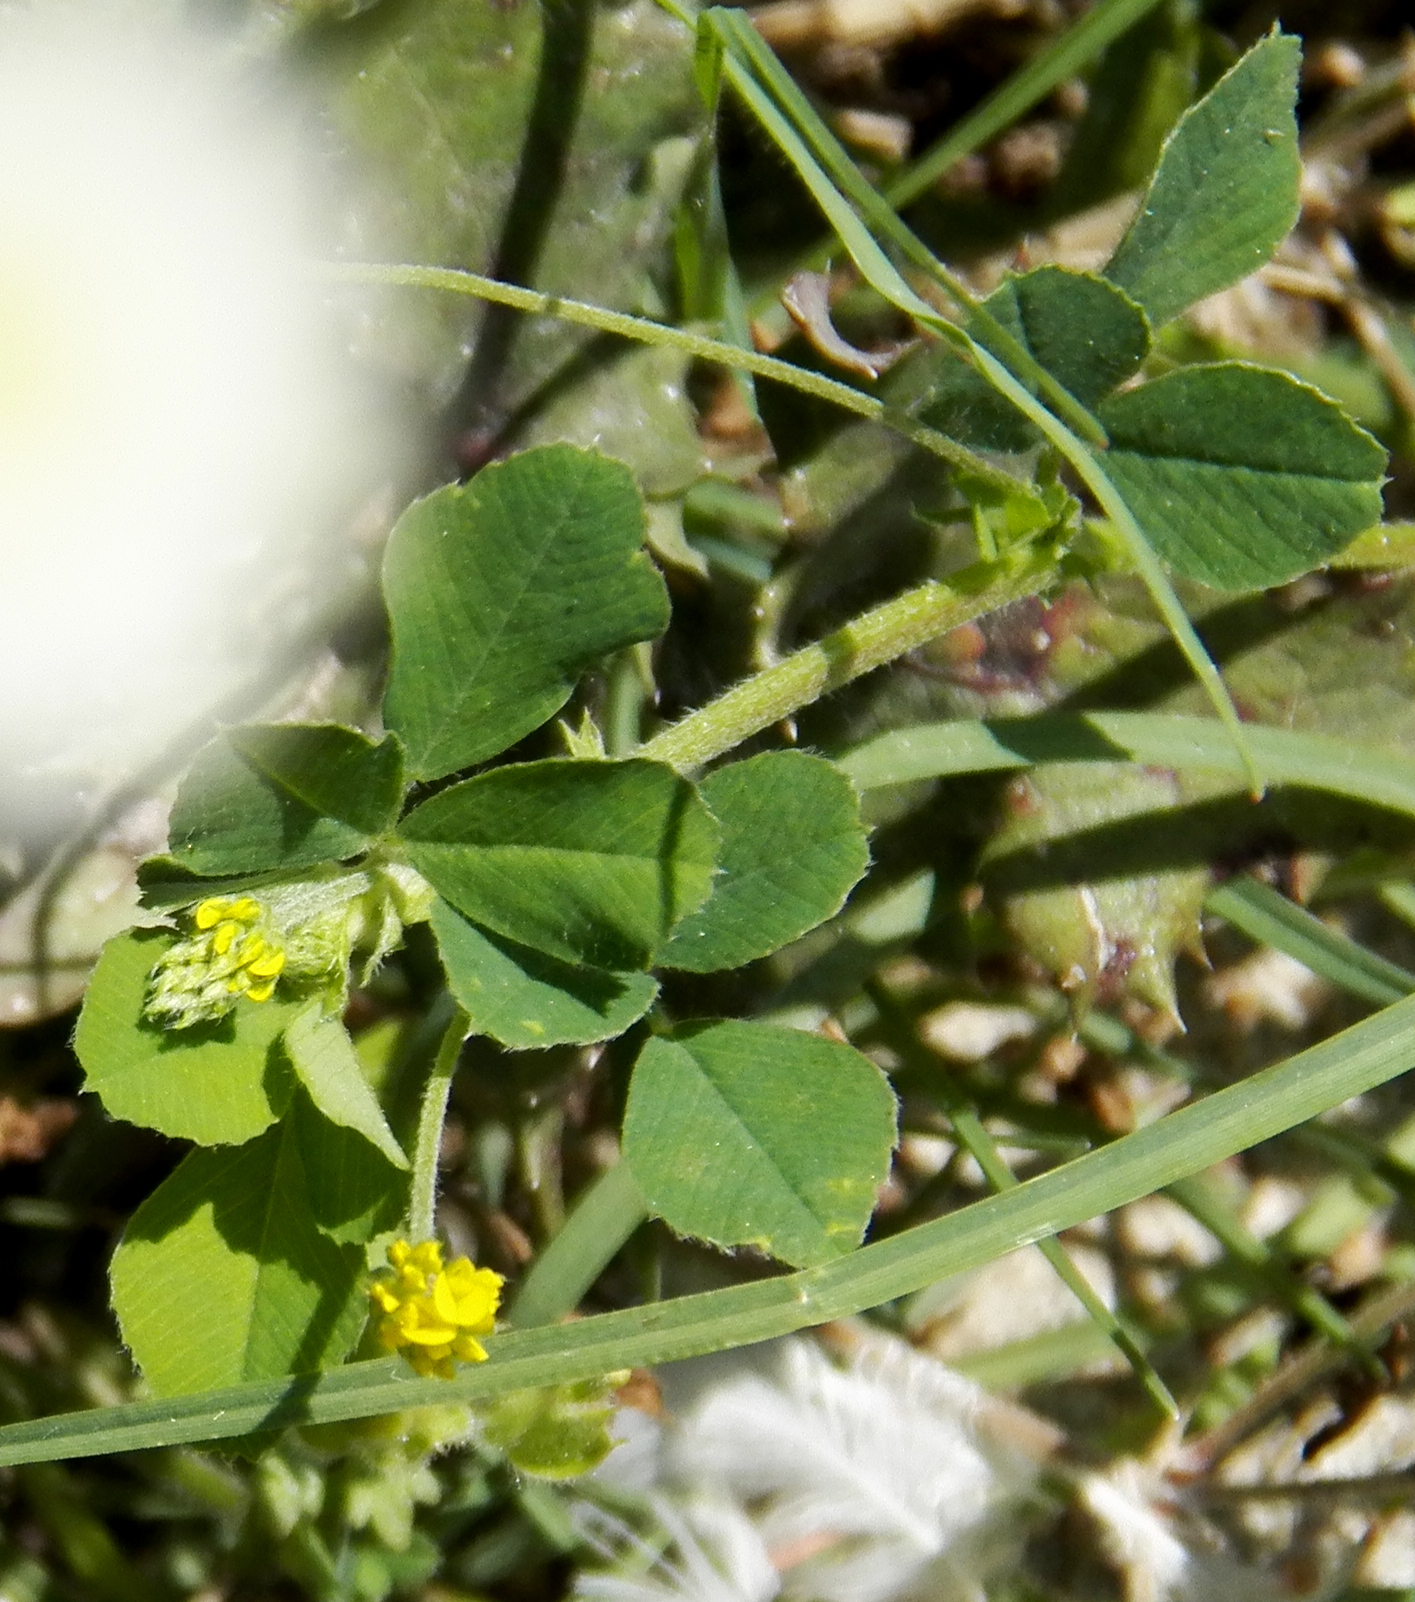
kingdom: Plantae
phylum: Tracheophyta
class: Magnoliopsida
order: Fabales
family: Fabaceae
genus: Medicago
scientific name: Medicago lupulina
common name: Black medick
